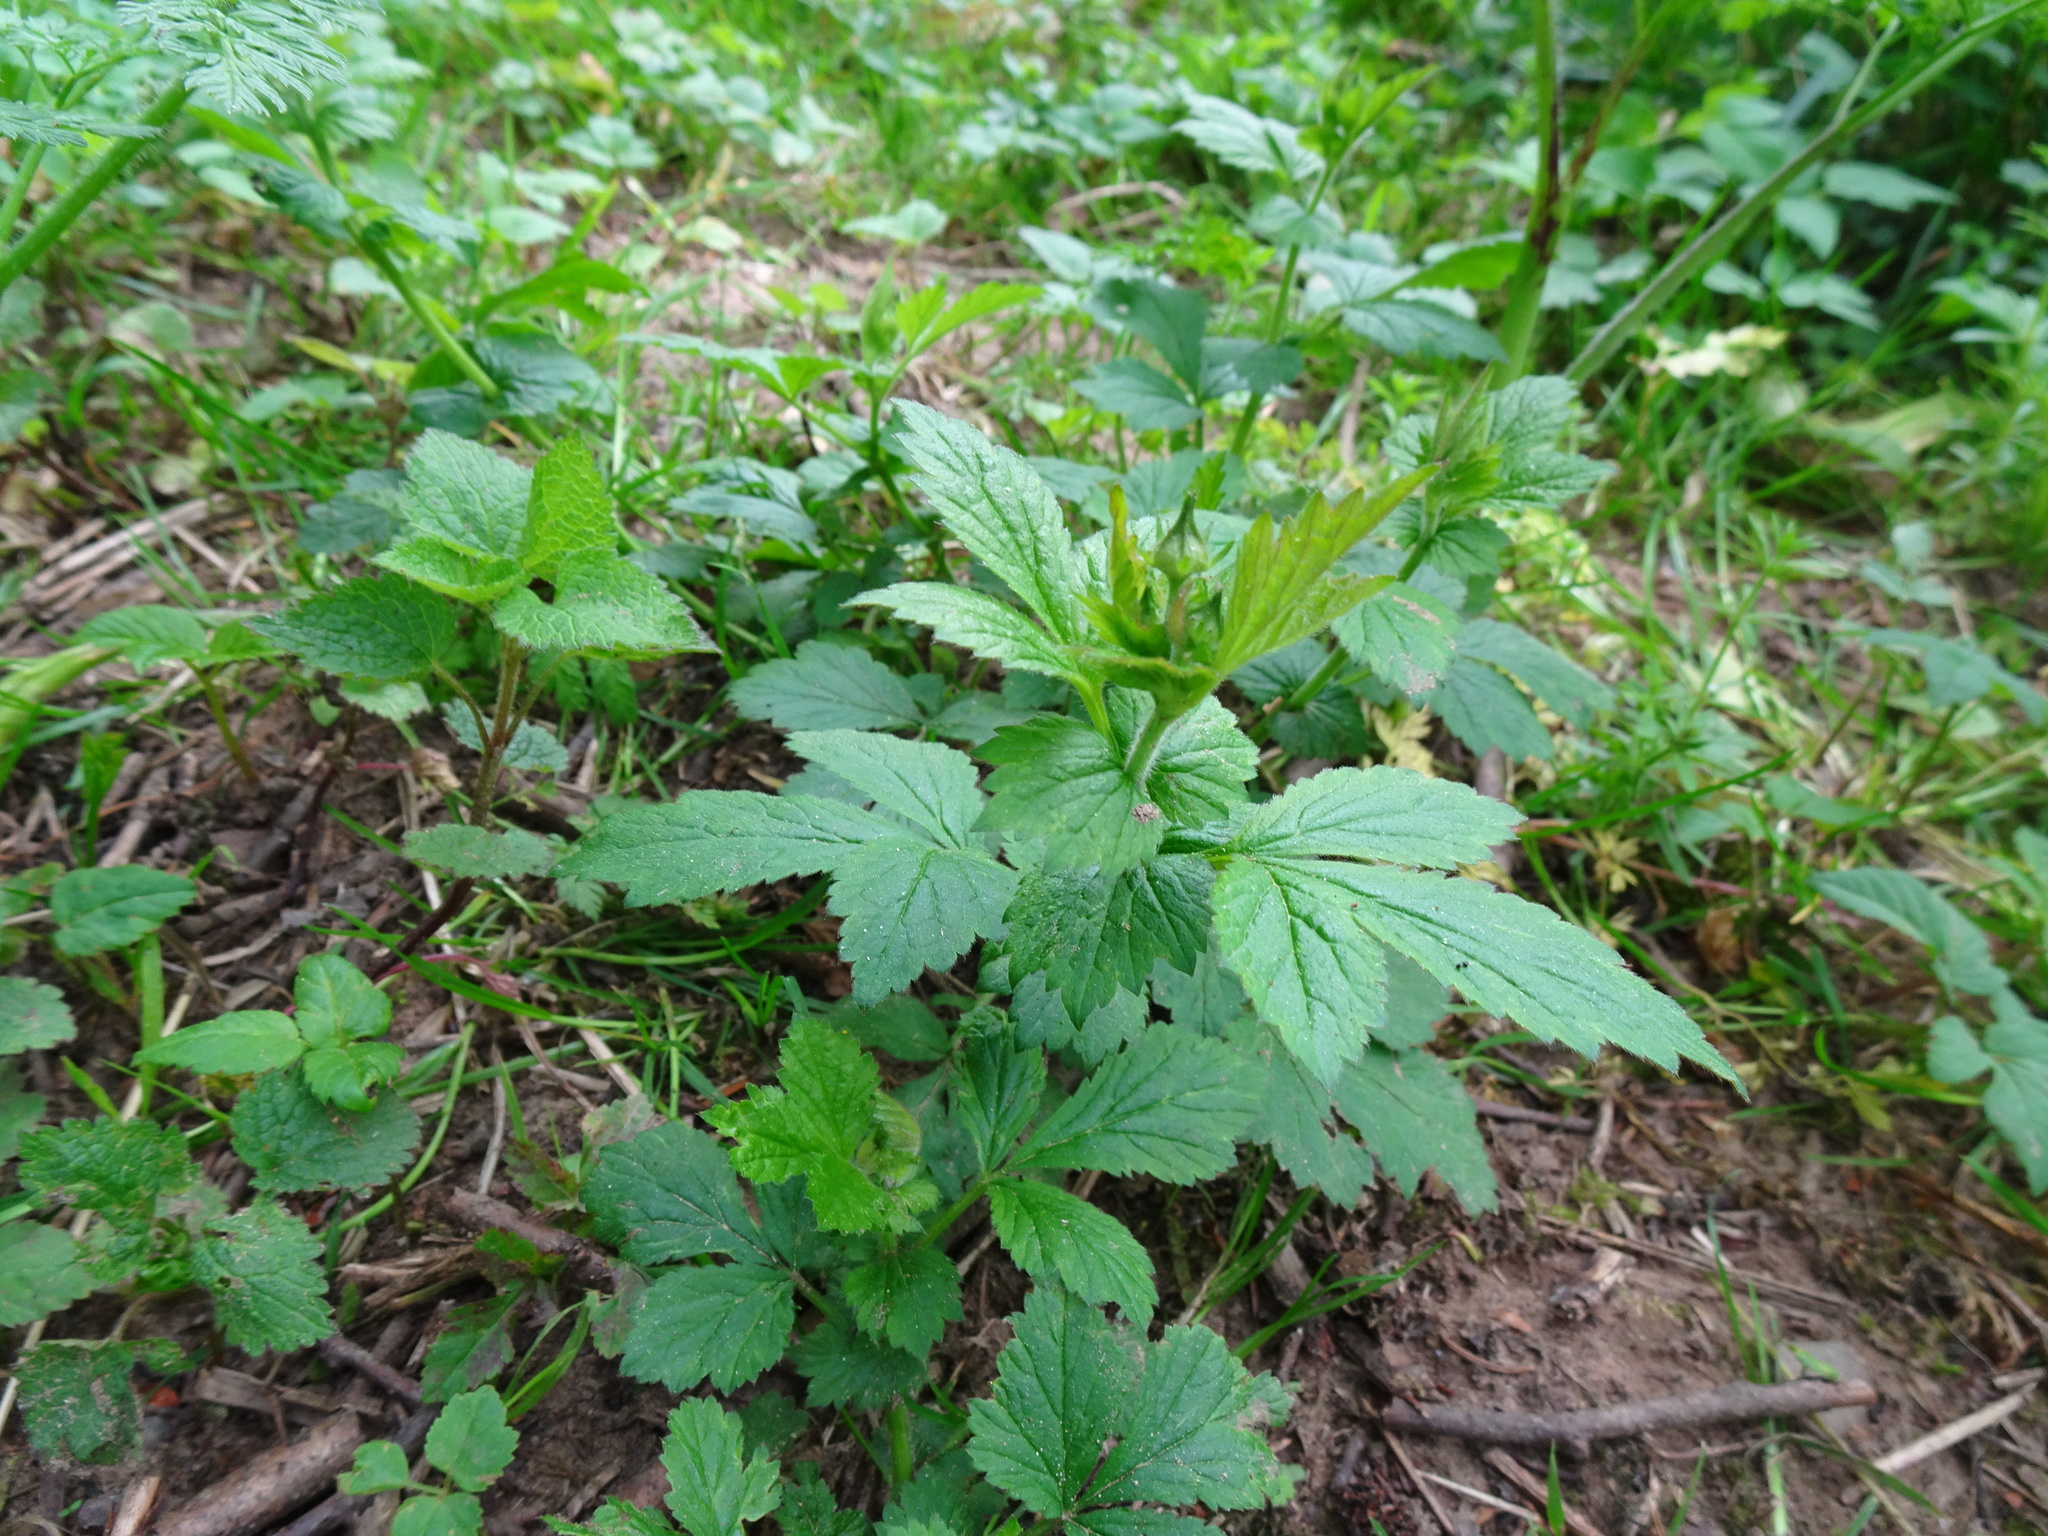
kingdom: Plantae
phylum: Tracheophyta
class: Magnoliopsida
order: Rosales
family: Rosaceae
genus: Geum
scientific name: Geum urbanum
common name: Wood avens
